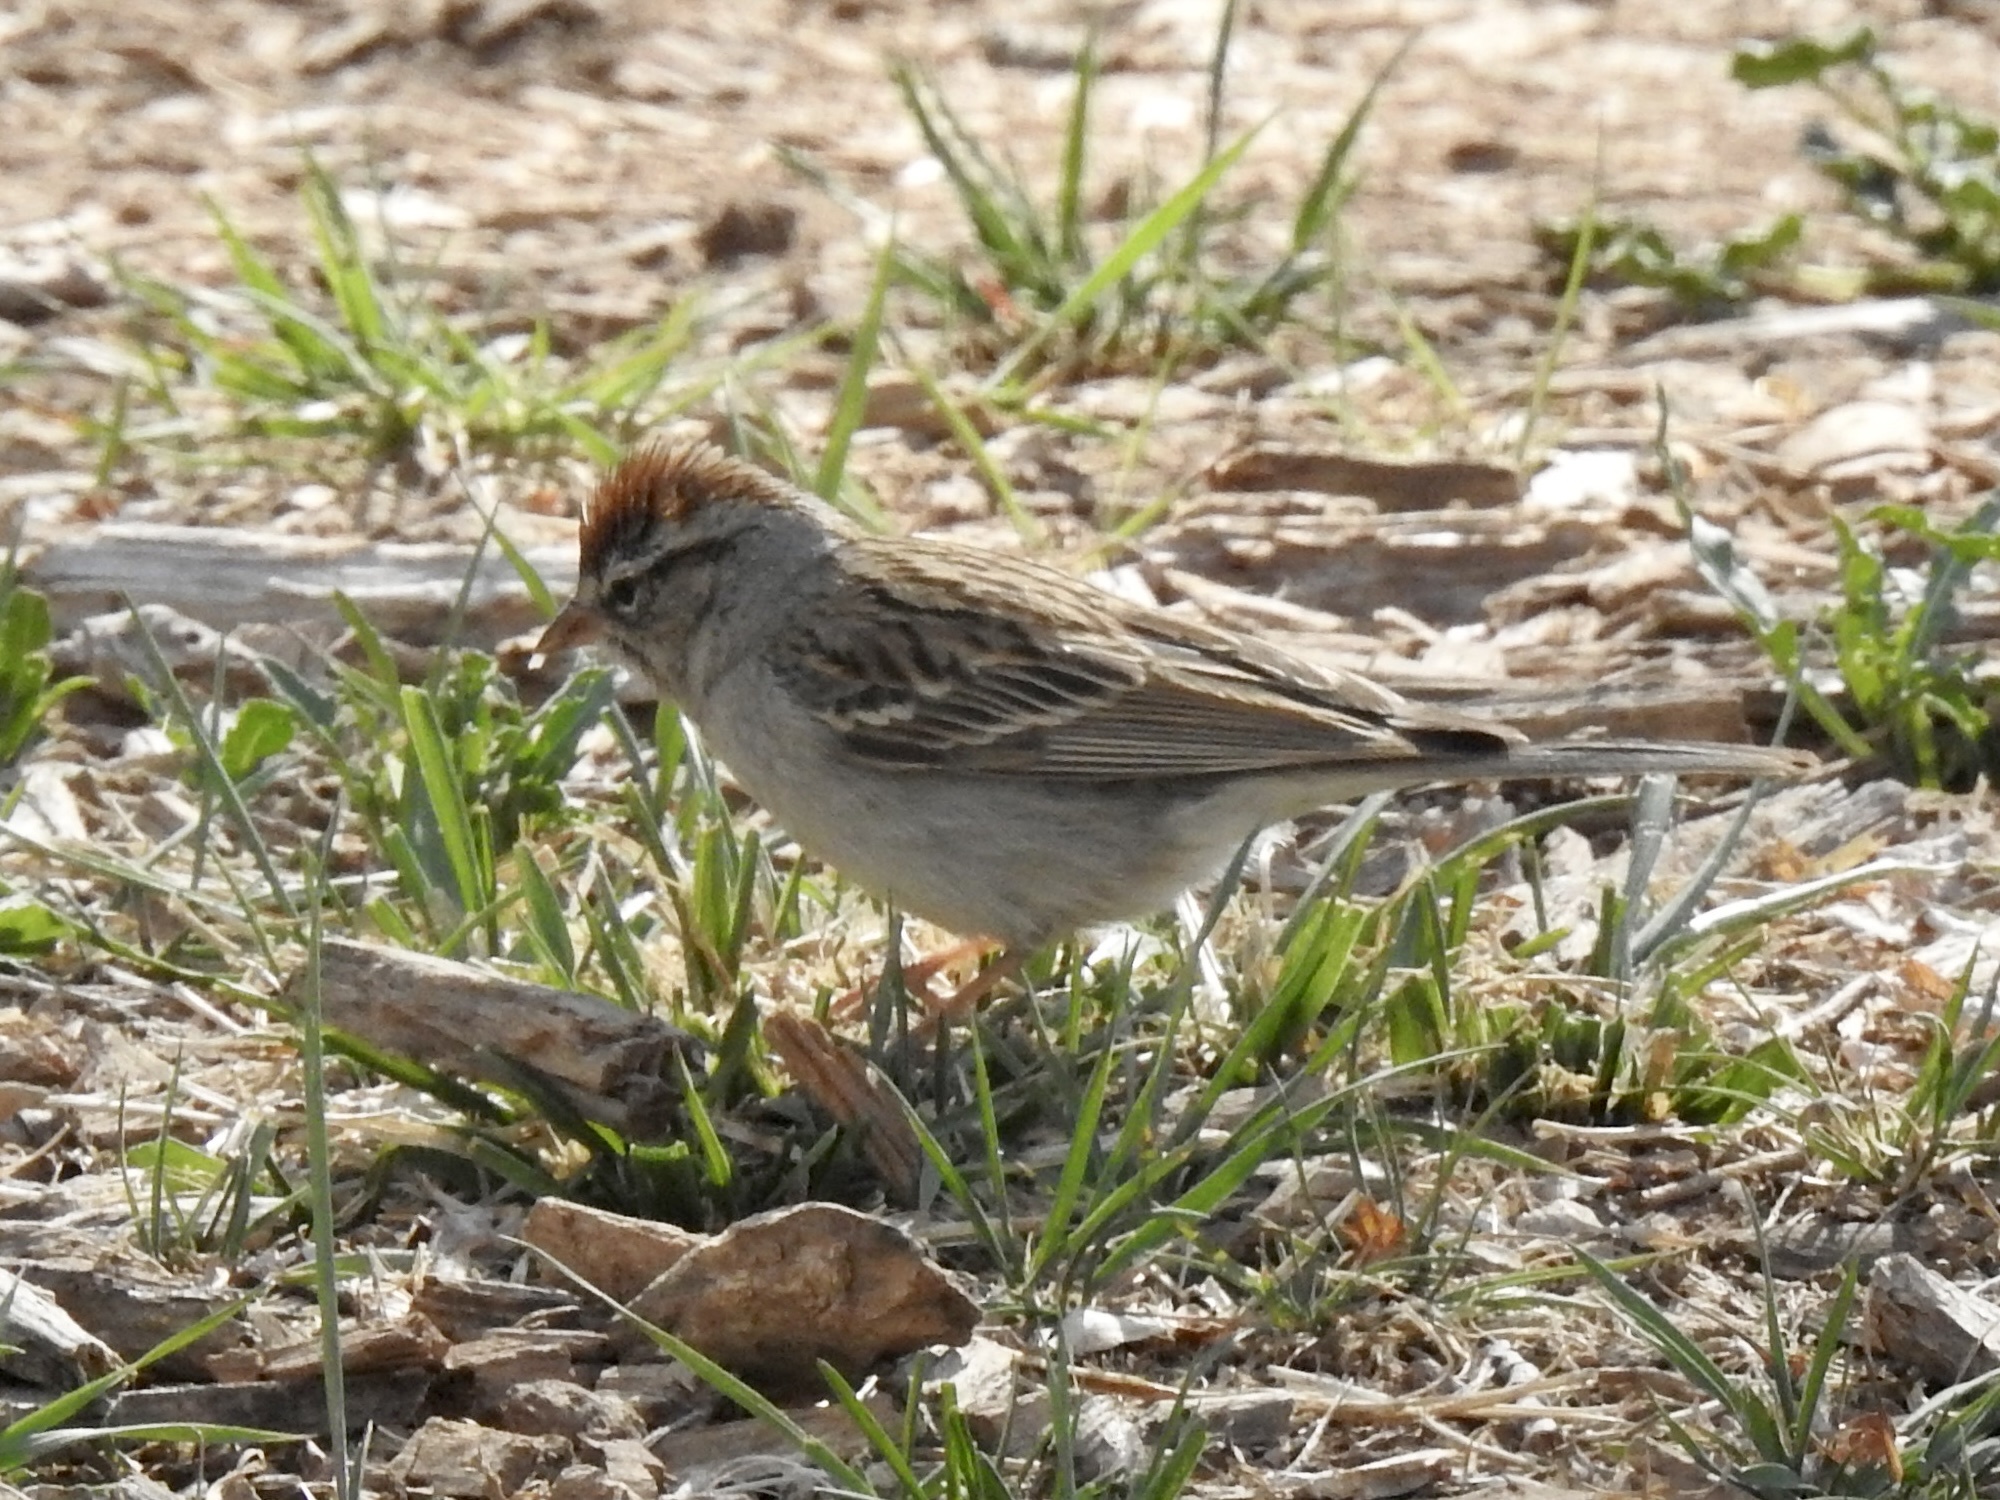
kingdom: Animalia
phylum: Chordata
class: Aves
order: Passeriformes
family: Passerellidae
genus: Spizella
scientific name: Spizella passerina
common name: Chipping sparrow
